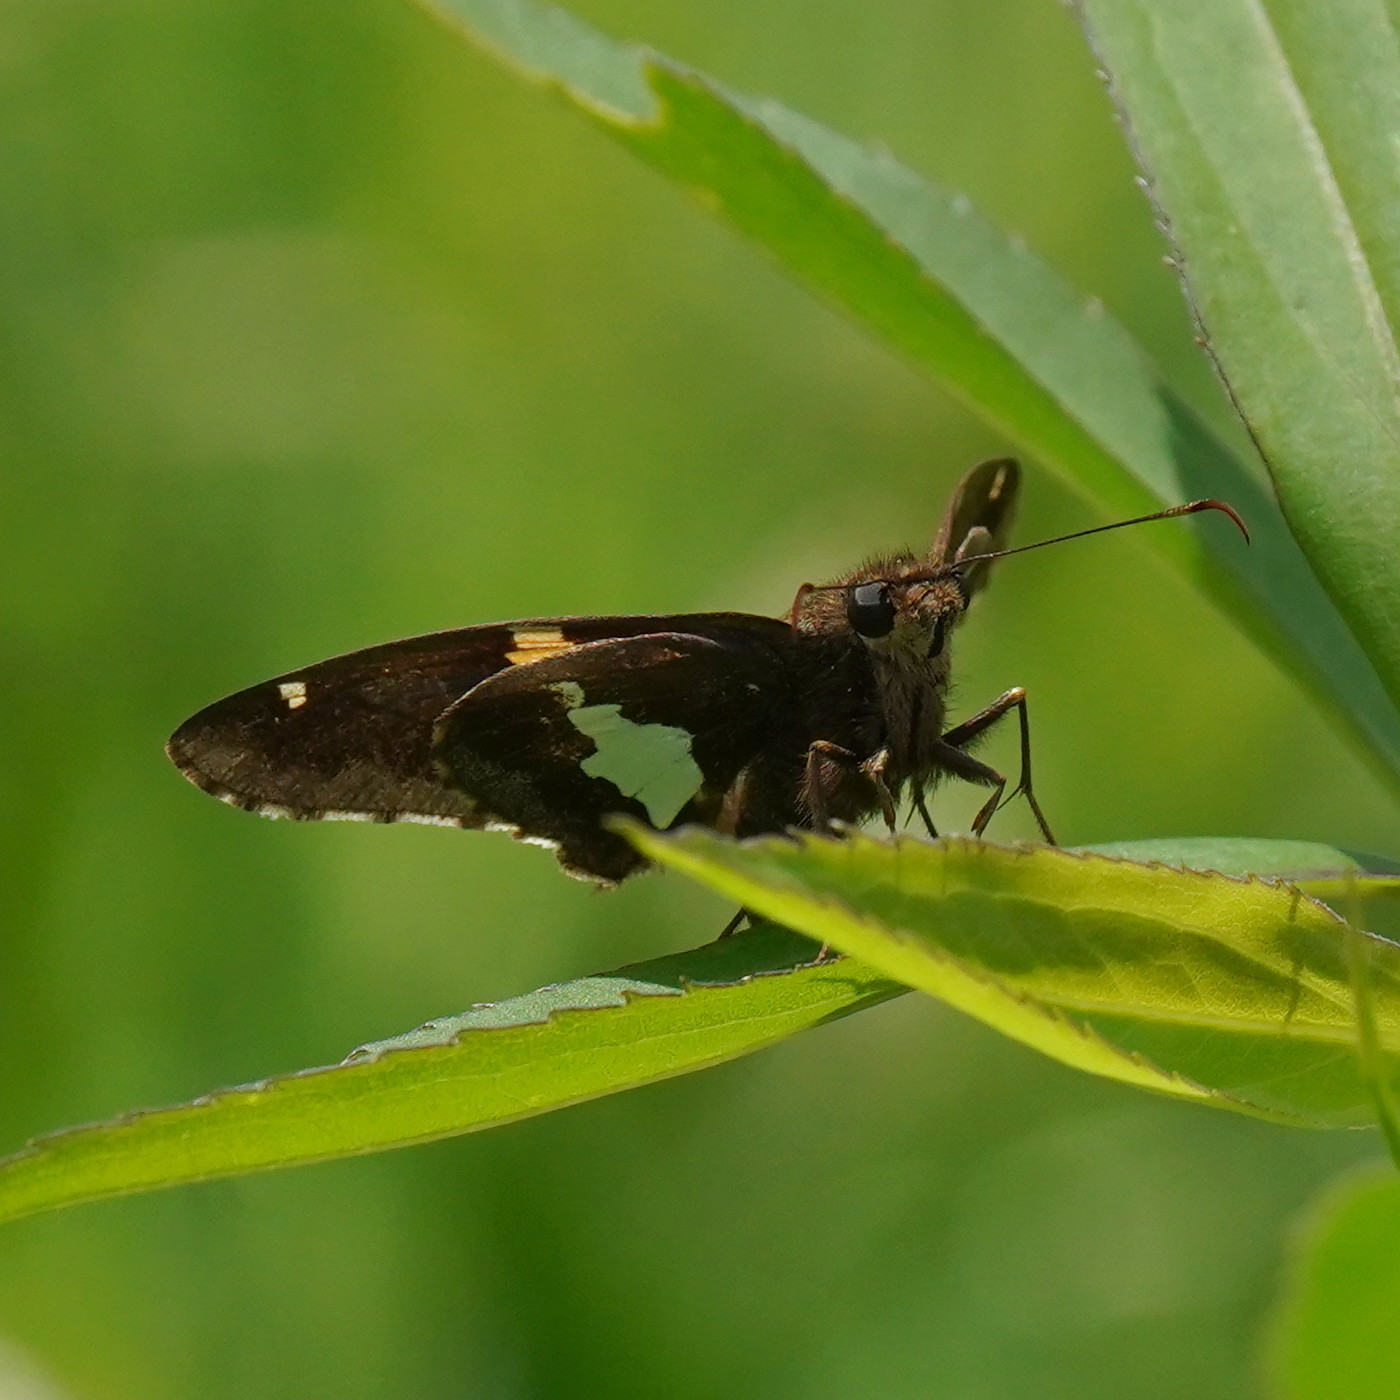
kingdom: Animalia
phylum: Arthropoda
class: Insecta
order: Lepidoptera
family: Hesperiidae
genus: Epargyreus
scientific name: Epargyreus clarus
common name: Silver-spotted skipper
